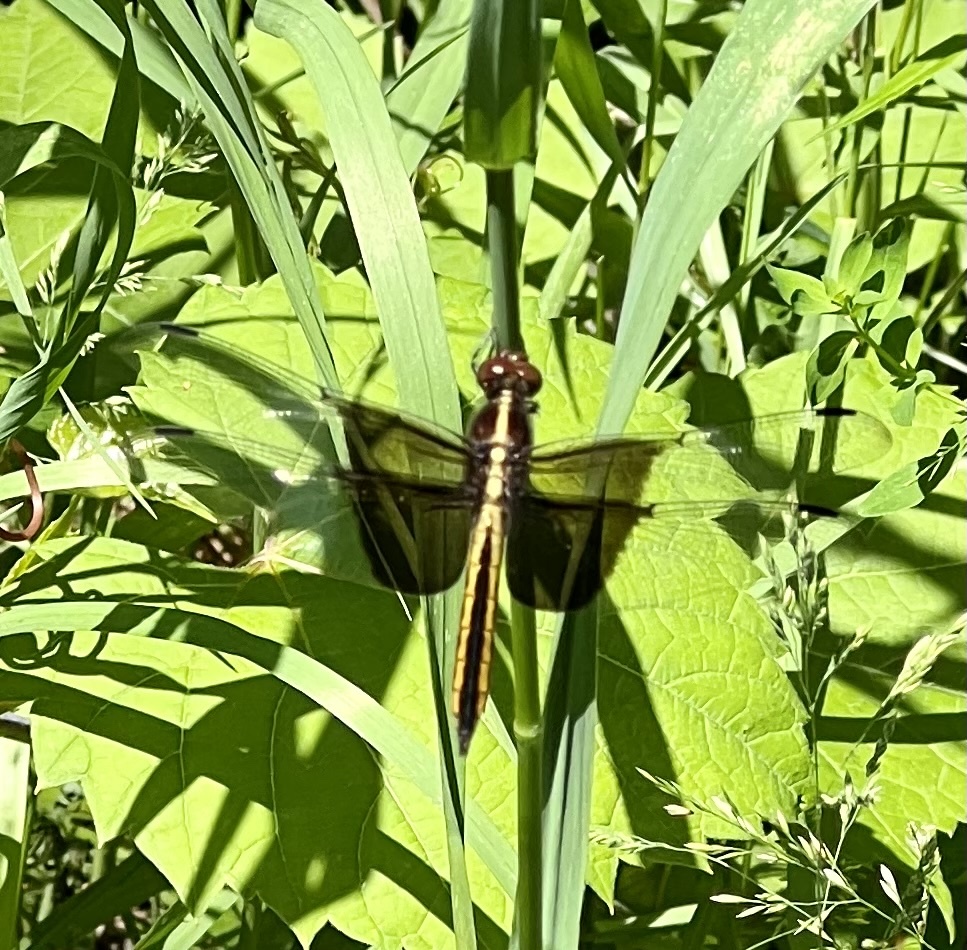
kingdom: Animalia
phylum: Arthropoda
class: Insecta
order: Odonata
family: Libellulidae
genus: Libellula
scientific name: Libellula luctuosa
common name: Widow skimmer
